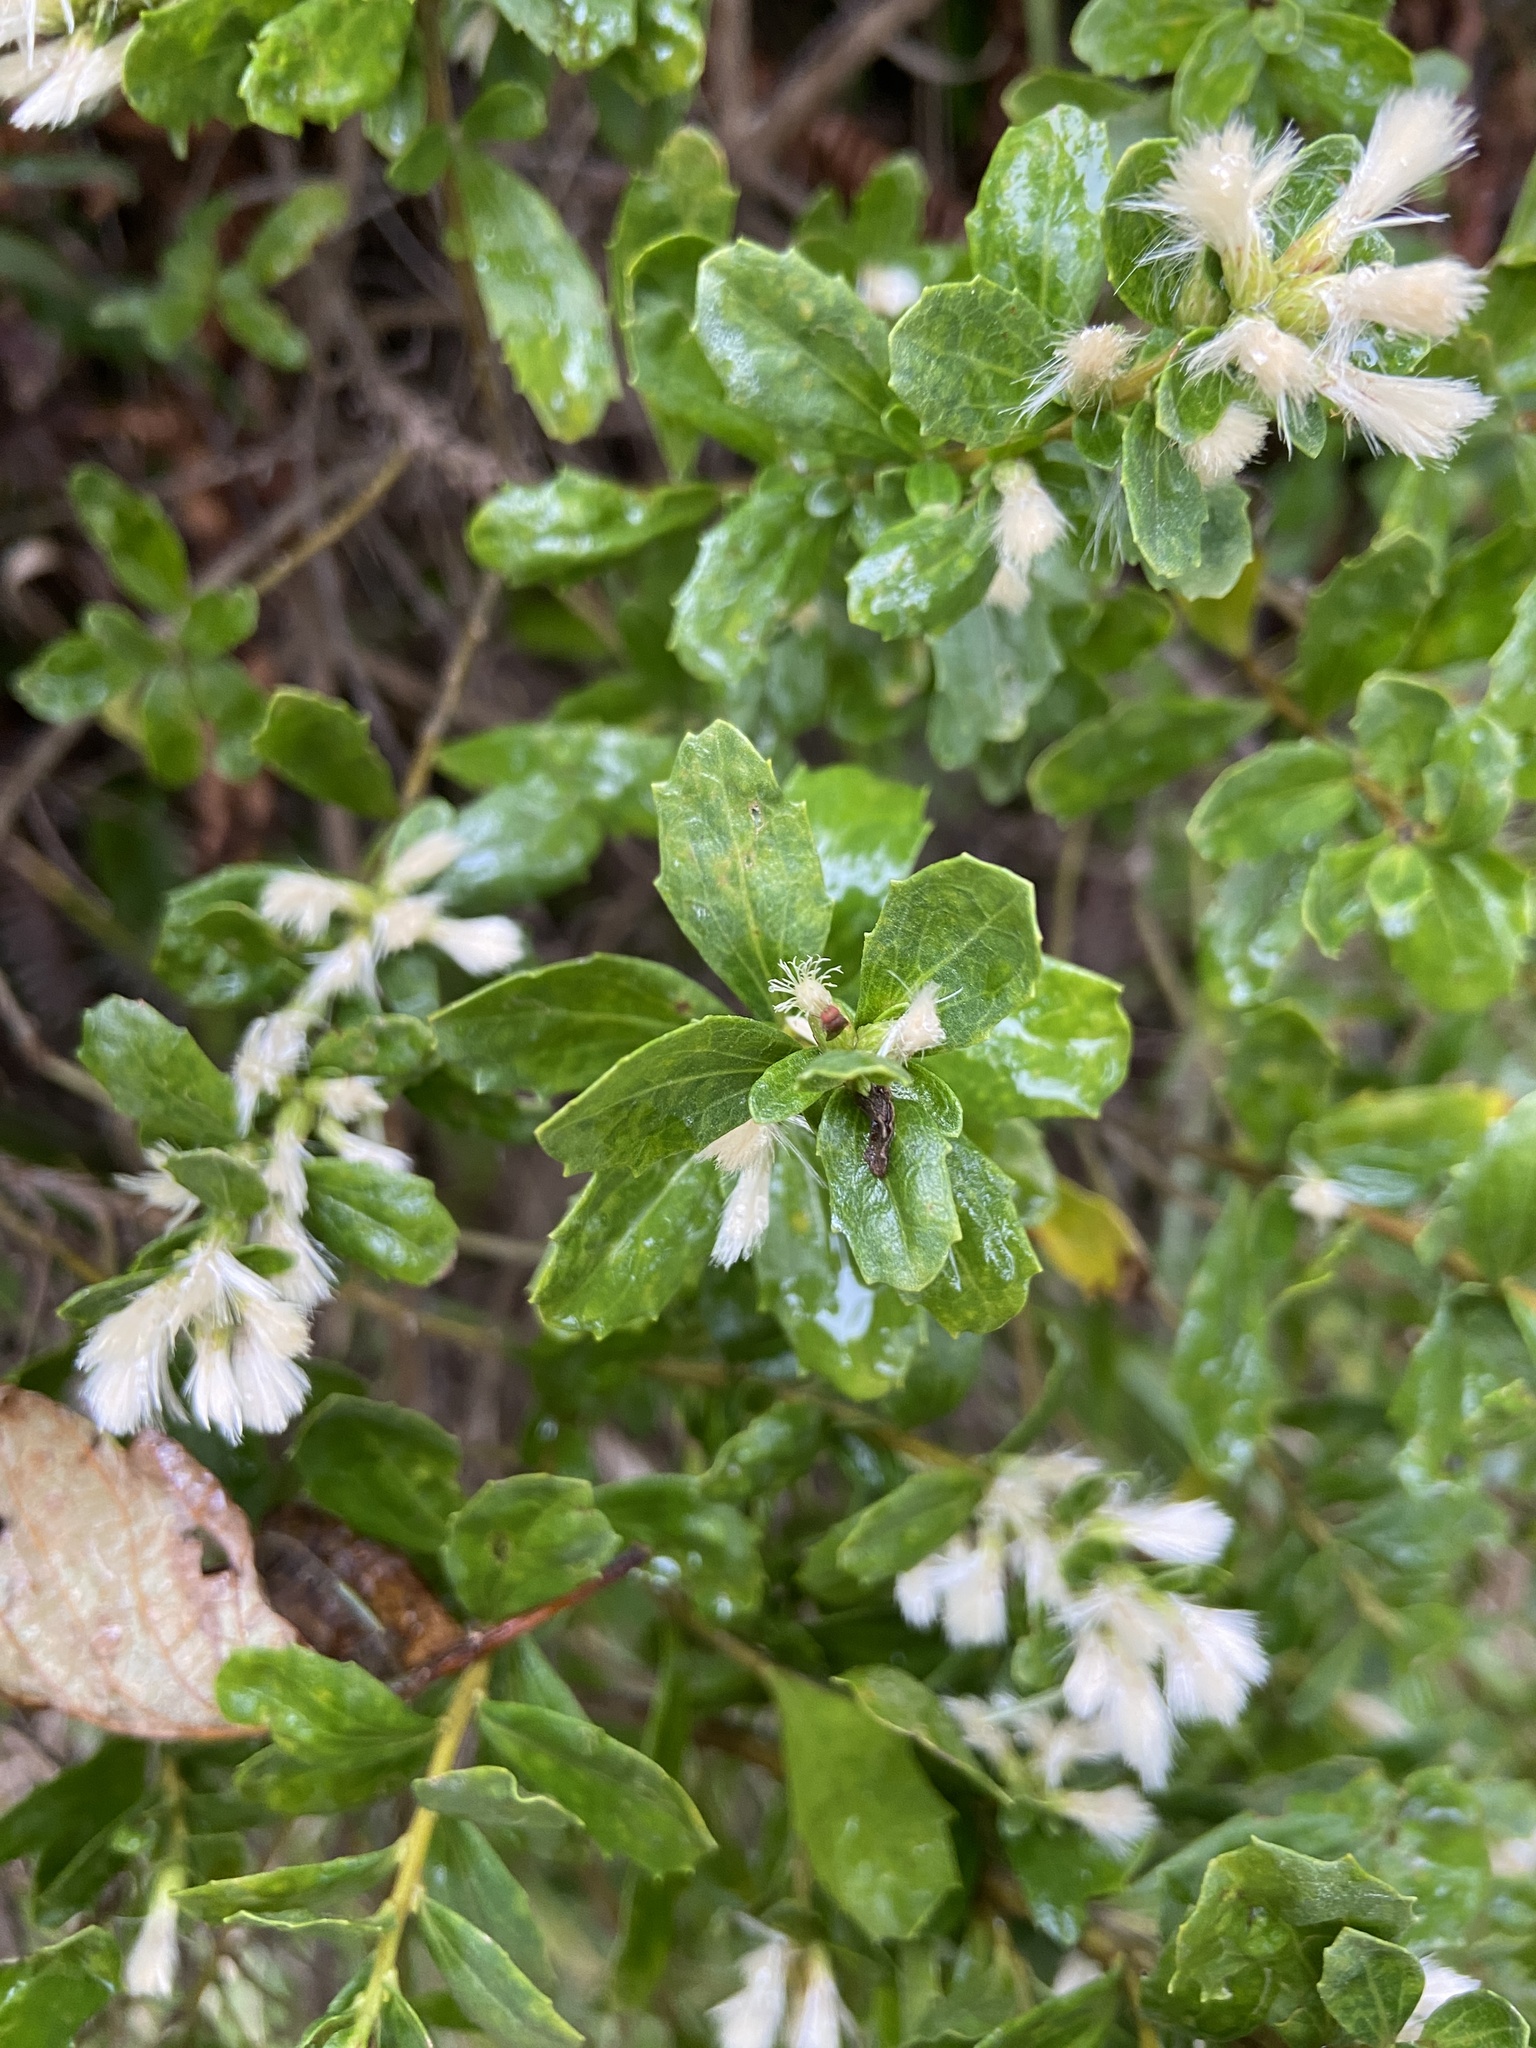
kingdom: Plantae
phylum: Tracheophyta
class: Magnoliopsida
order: Asterales
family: Asteraceae
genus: Baccharis
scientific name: Baccharis pilularis
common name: Coyotebrush
